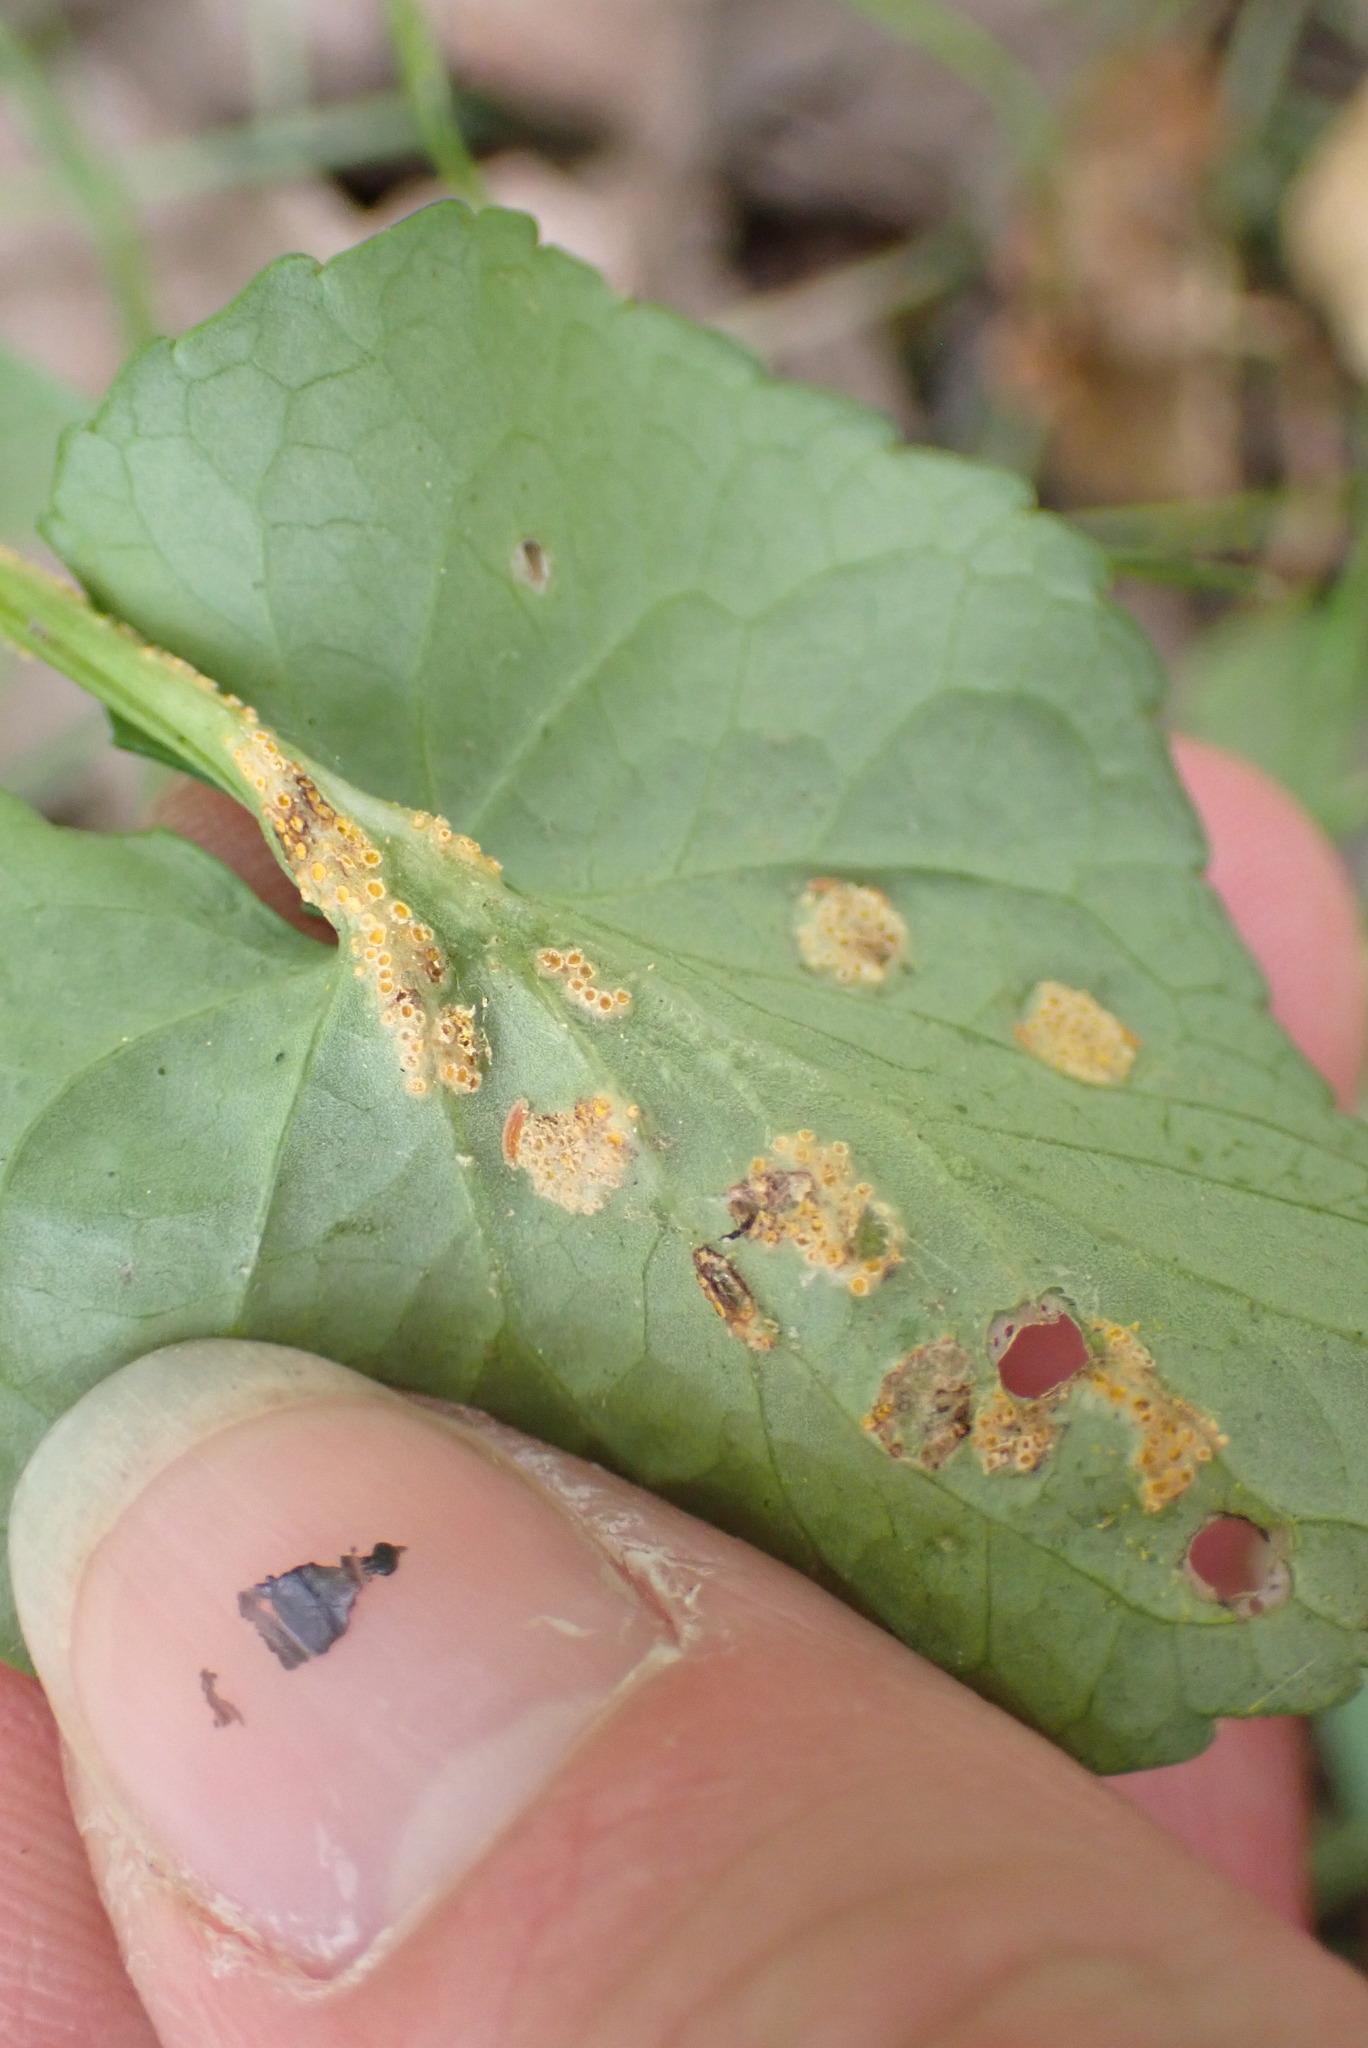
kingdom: Fungi
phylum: Basidiomycota
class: Pucciniomycetes
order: Pucciniales
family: Pucciniaceae
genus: Puccinia
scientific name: Puccinia violae
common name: Violet rust
